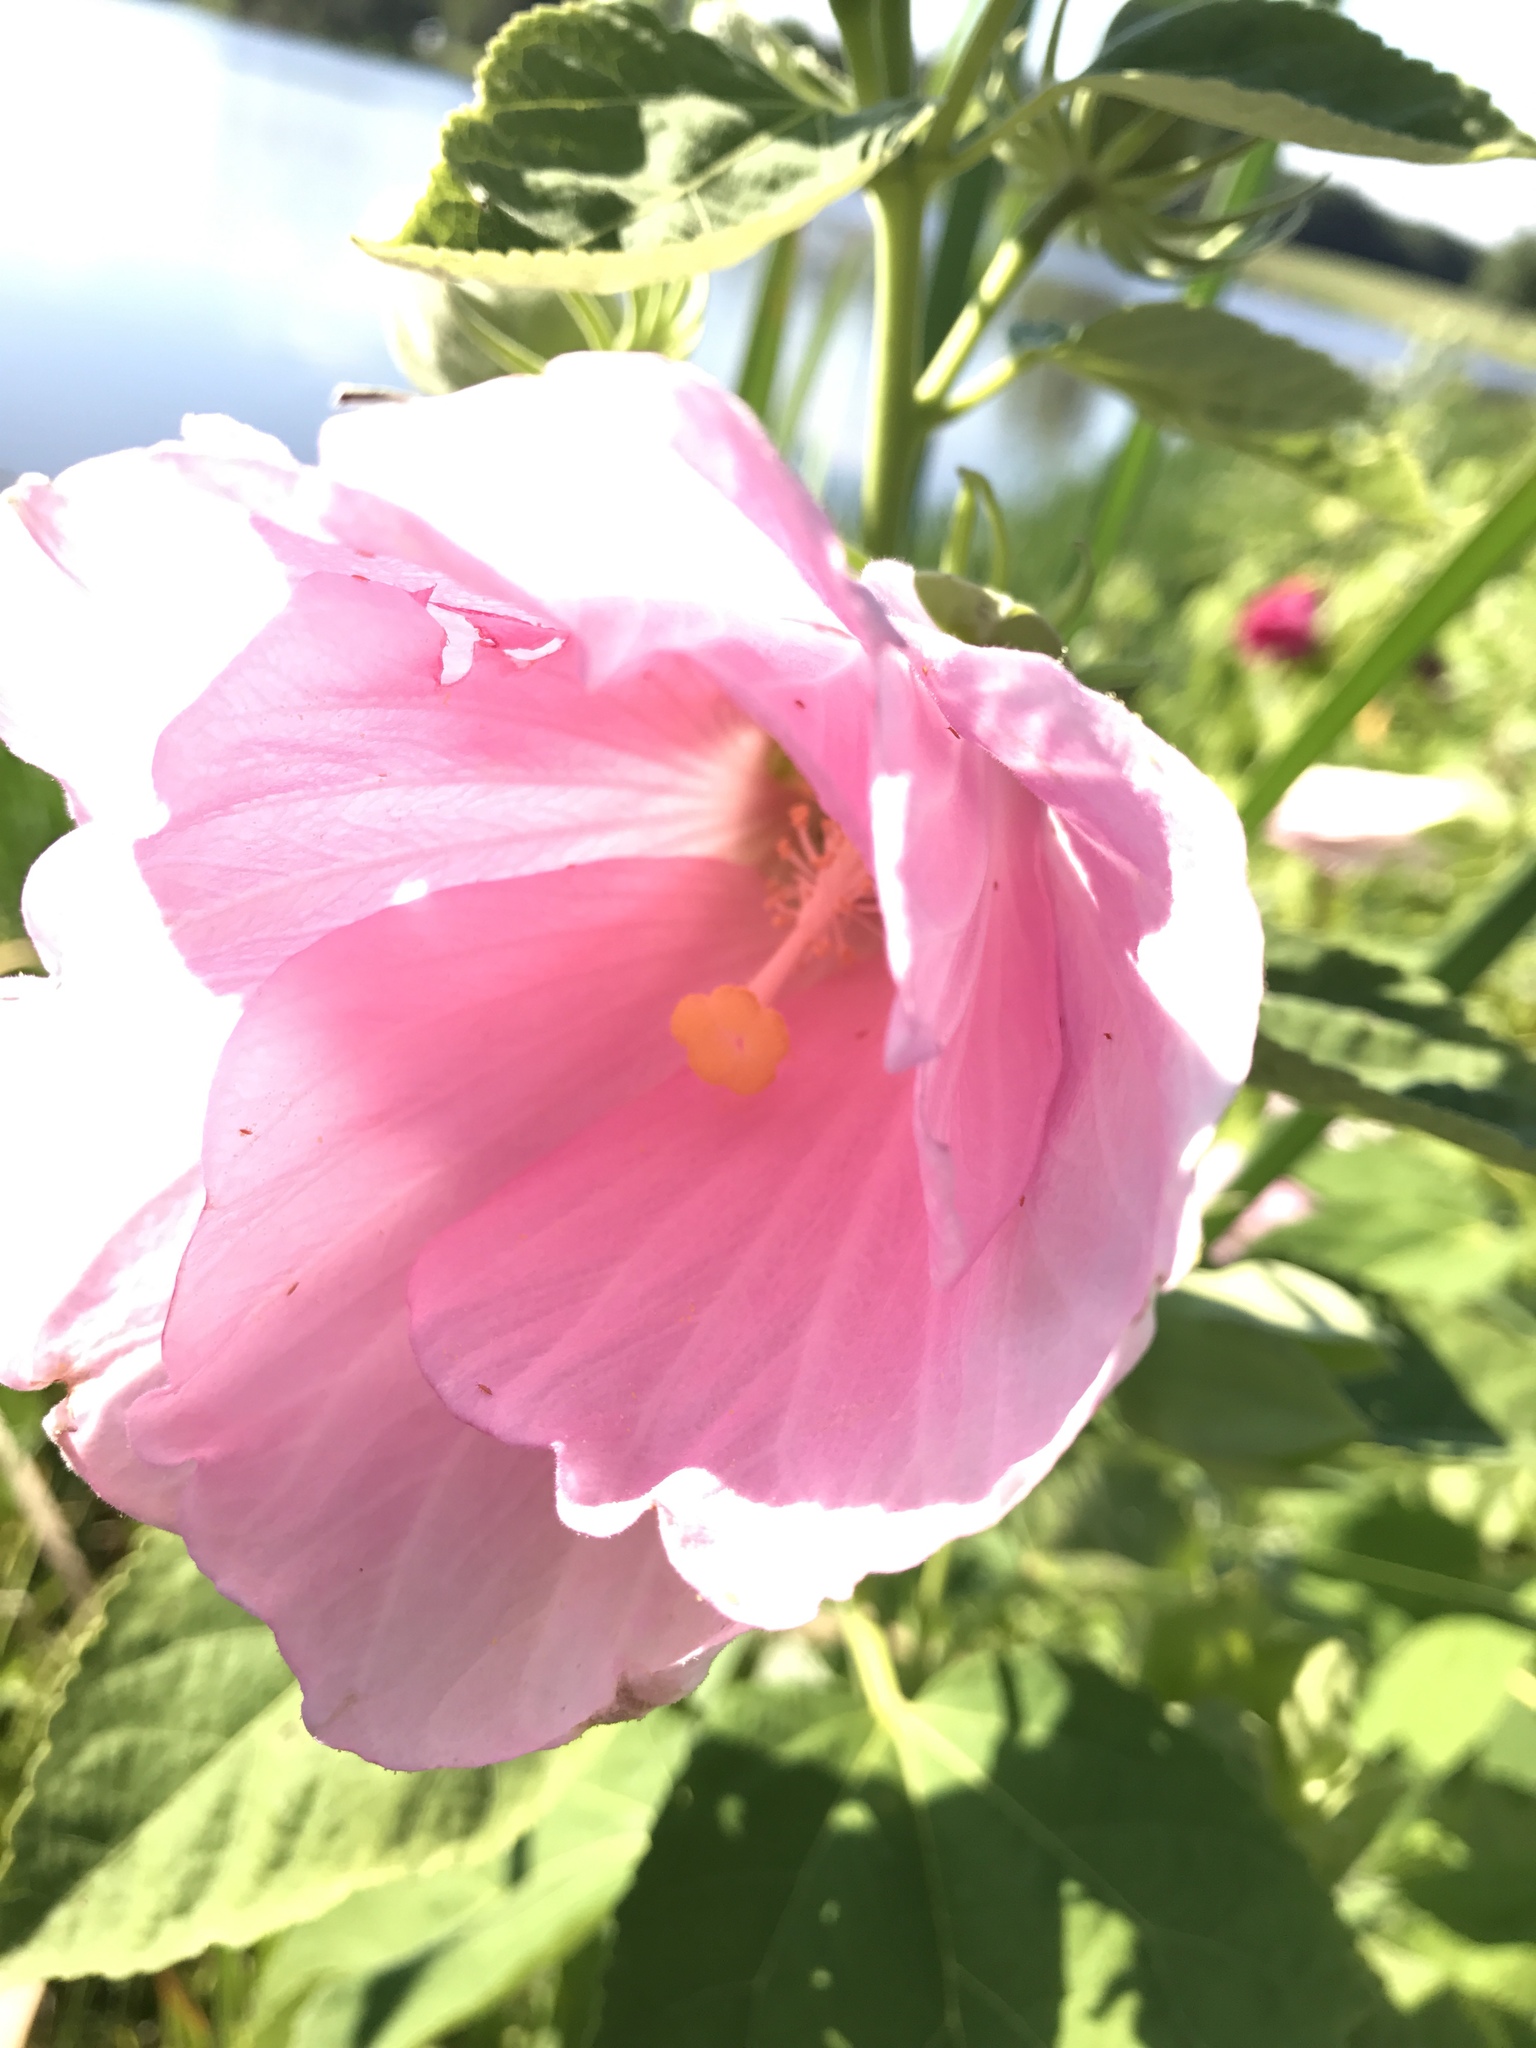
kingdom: Plantae
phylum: Tracheophyta
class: Magnoliopsida
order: Malvales
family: Malvaceae
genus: Hibiscus
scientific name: Hibiscus moscheutos
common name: Common rose-mallow
